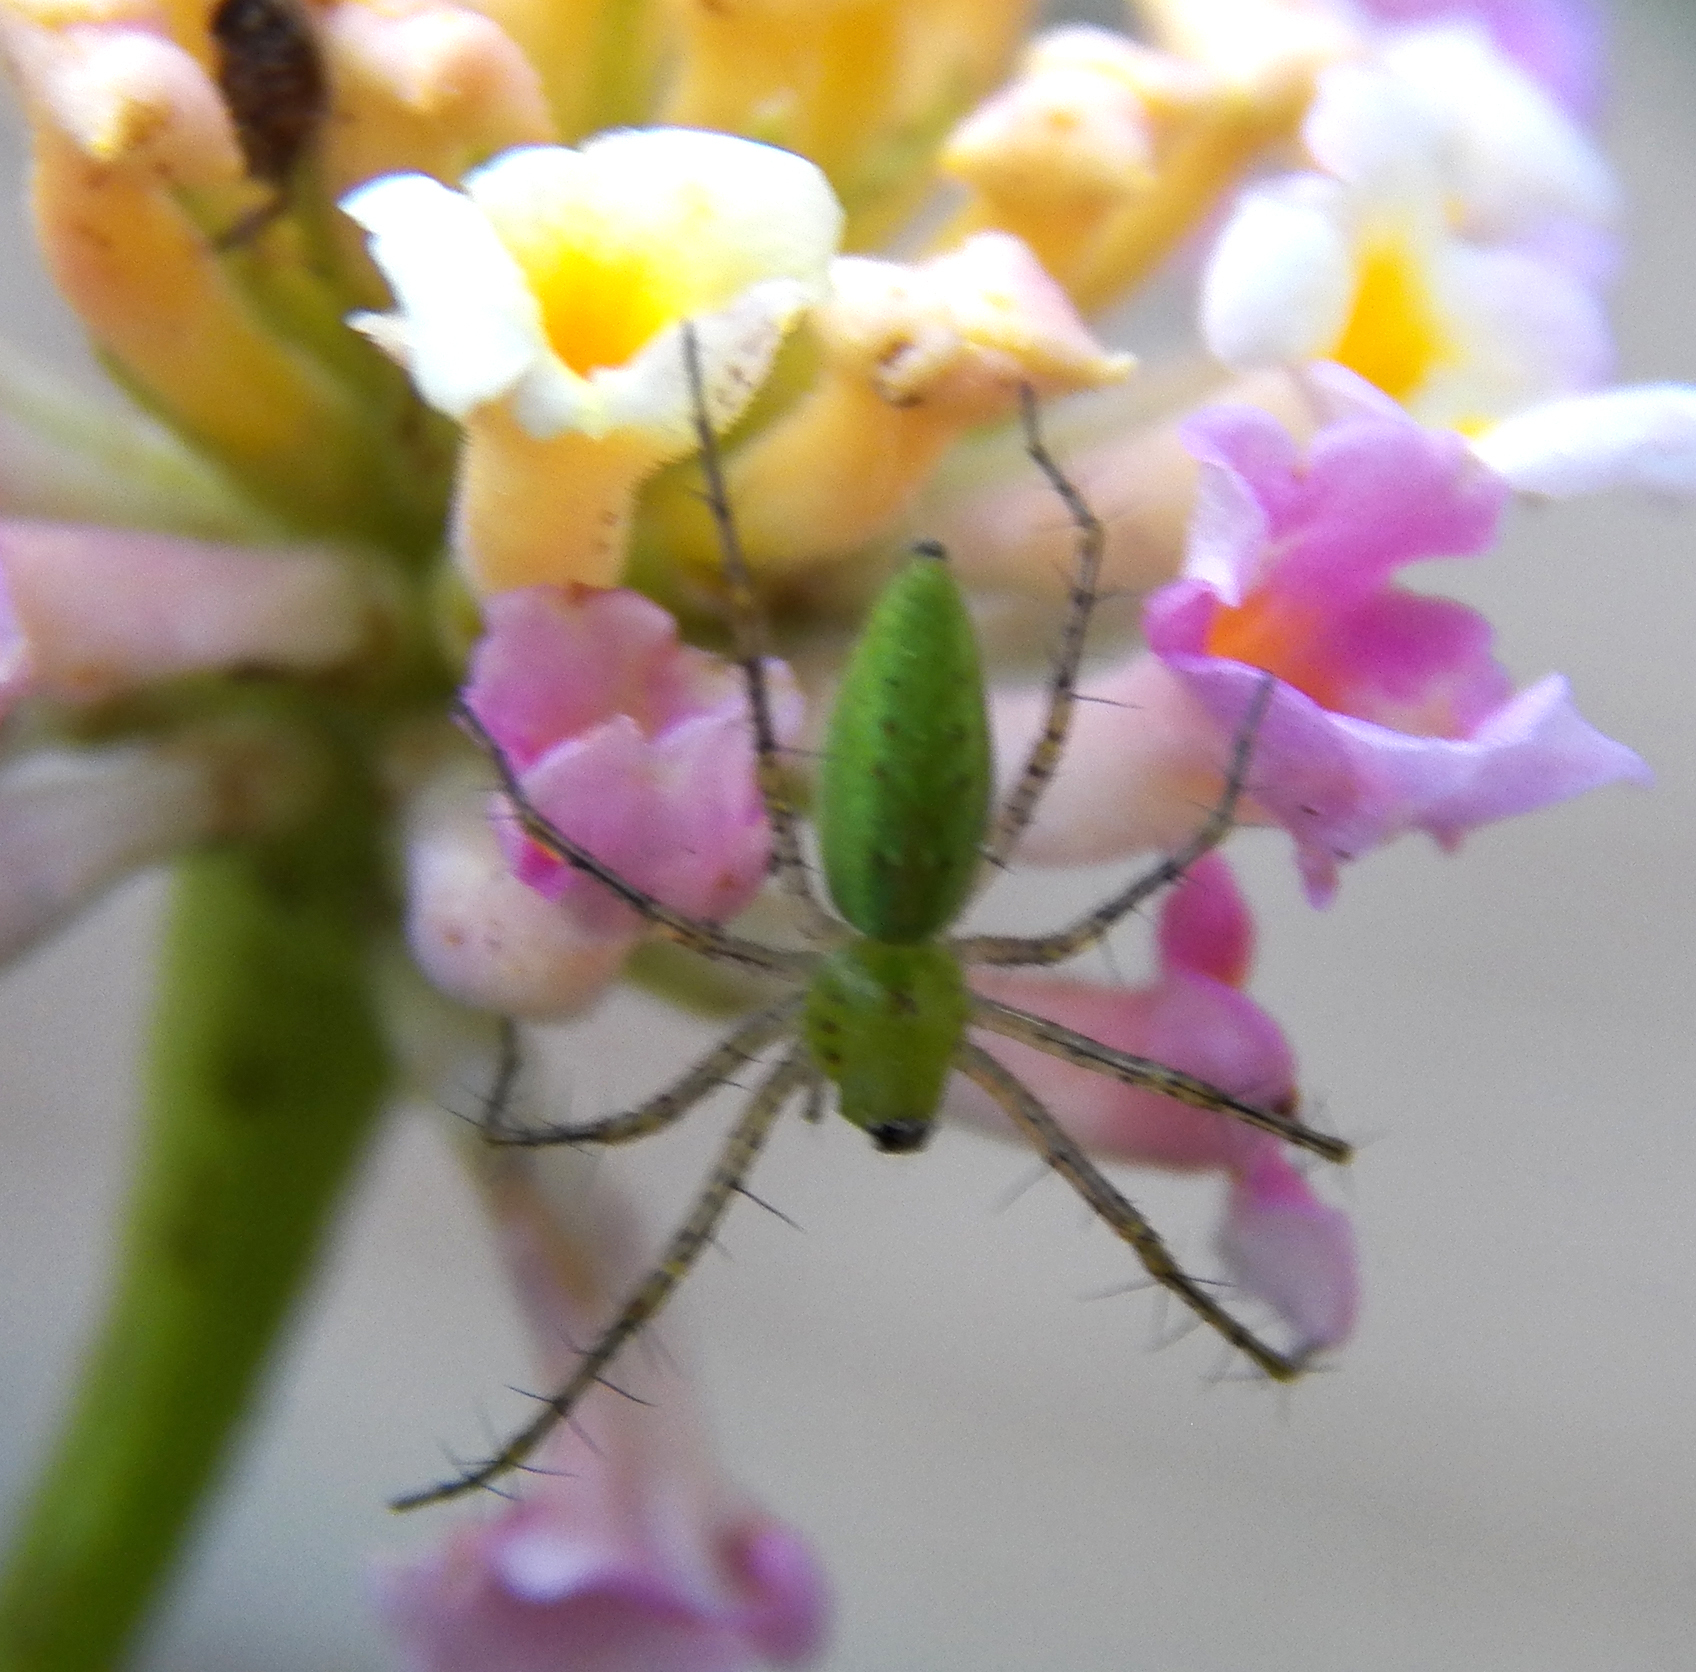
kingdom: Animalia
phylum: Arthropoda
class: Arachnida
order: Araneae
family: Oxyopidae
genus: Peucetia
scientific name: Peucetia viridans
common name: Lynx spiders
